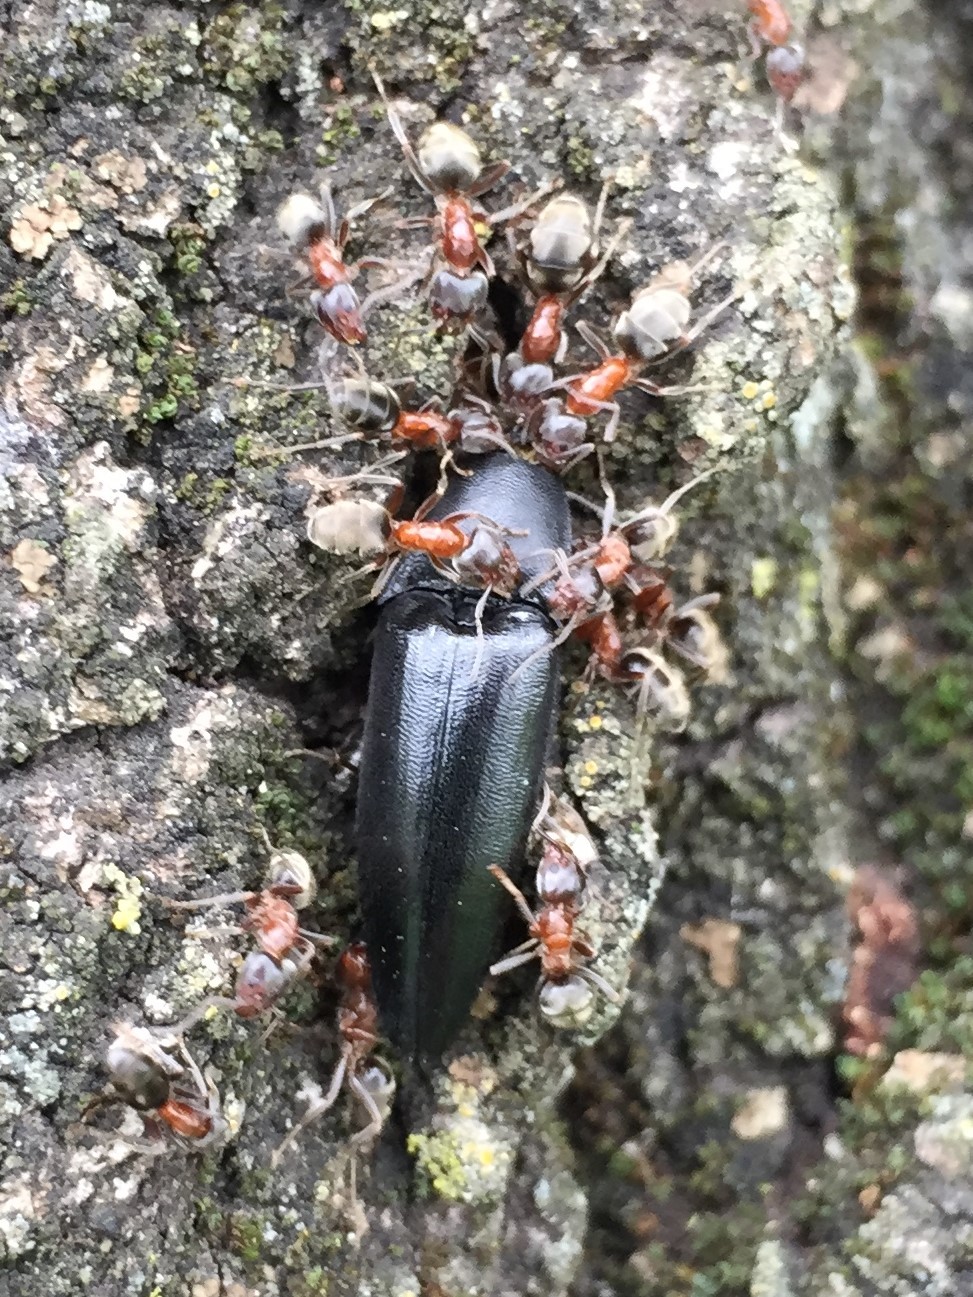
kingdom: Animalia
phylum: Arthropoda
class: Insecta
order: Hymenoptera
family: Formicidae
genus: Liometopum
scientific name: Liometopum occidentale
